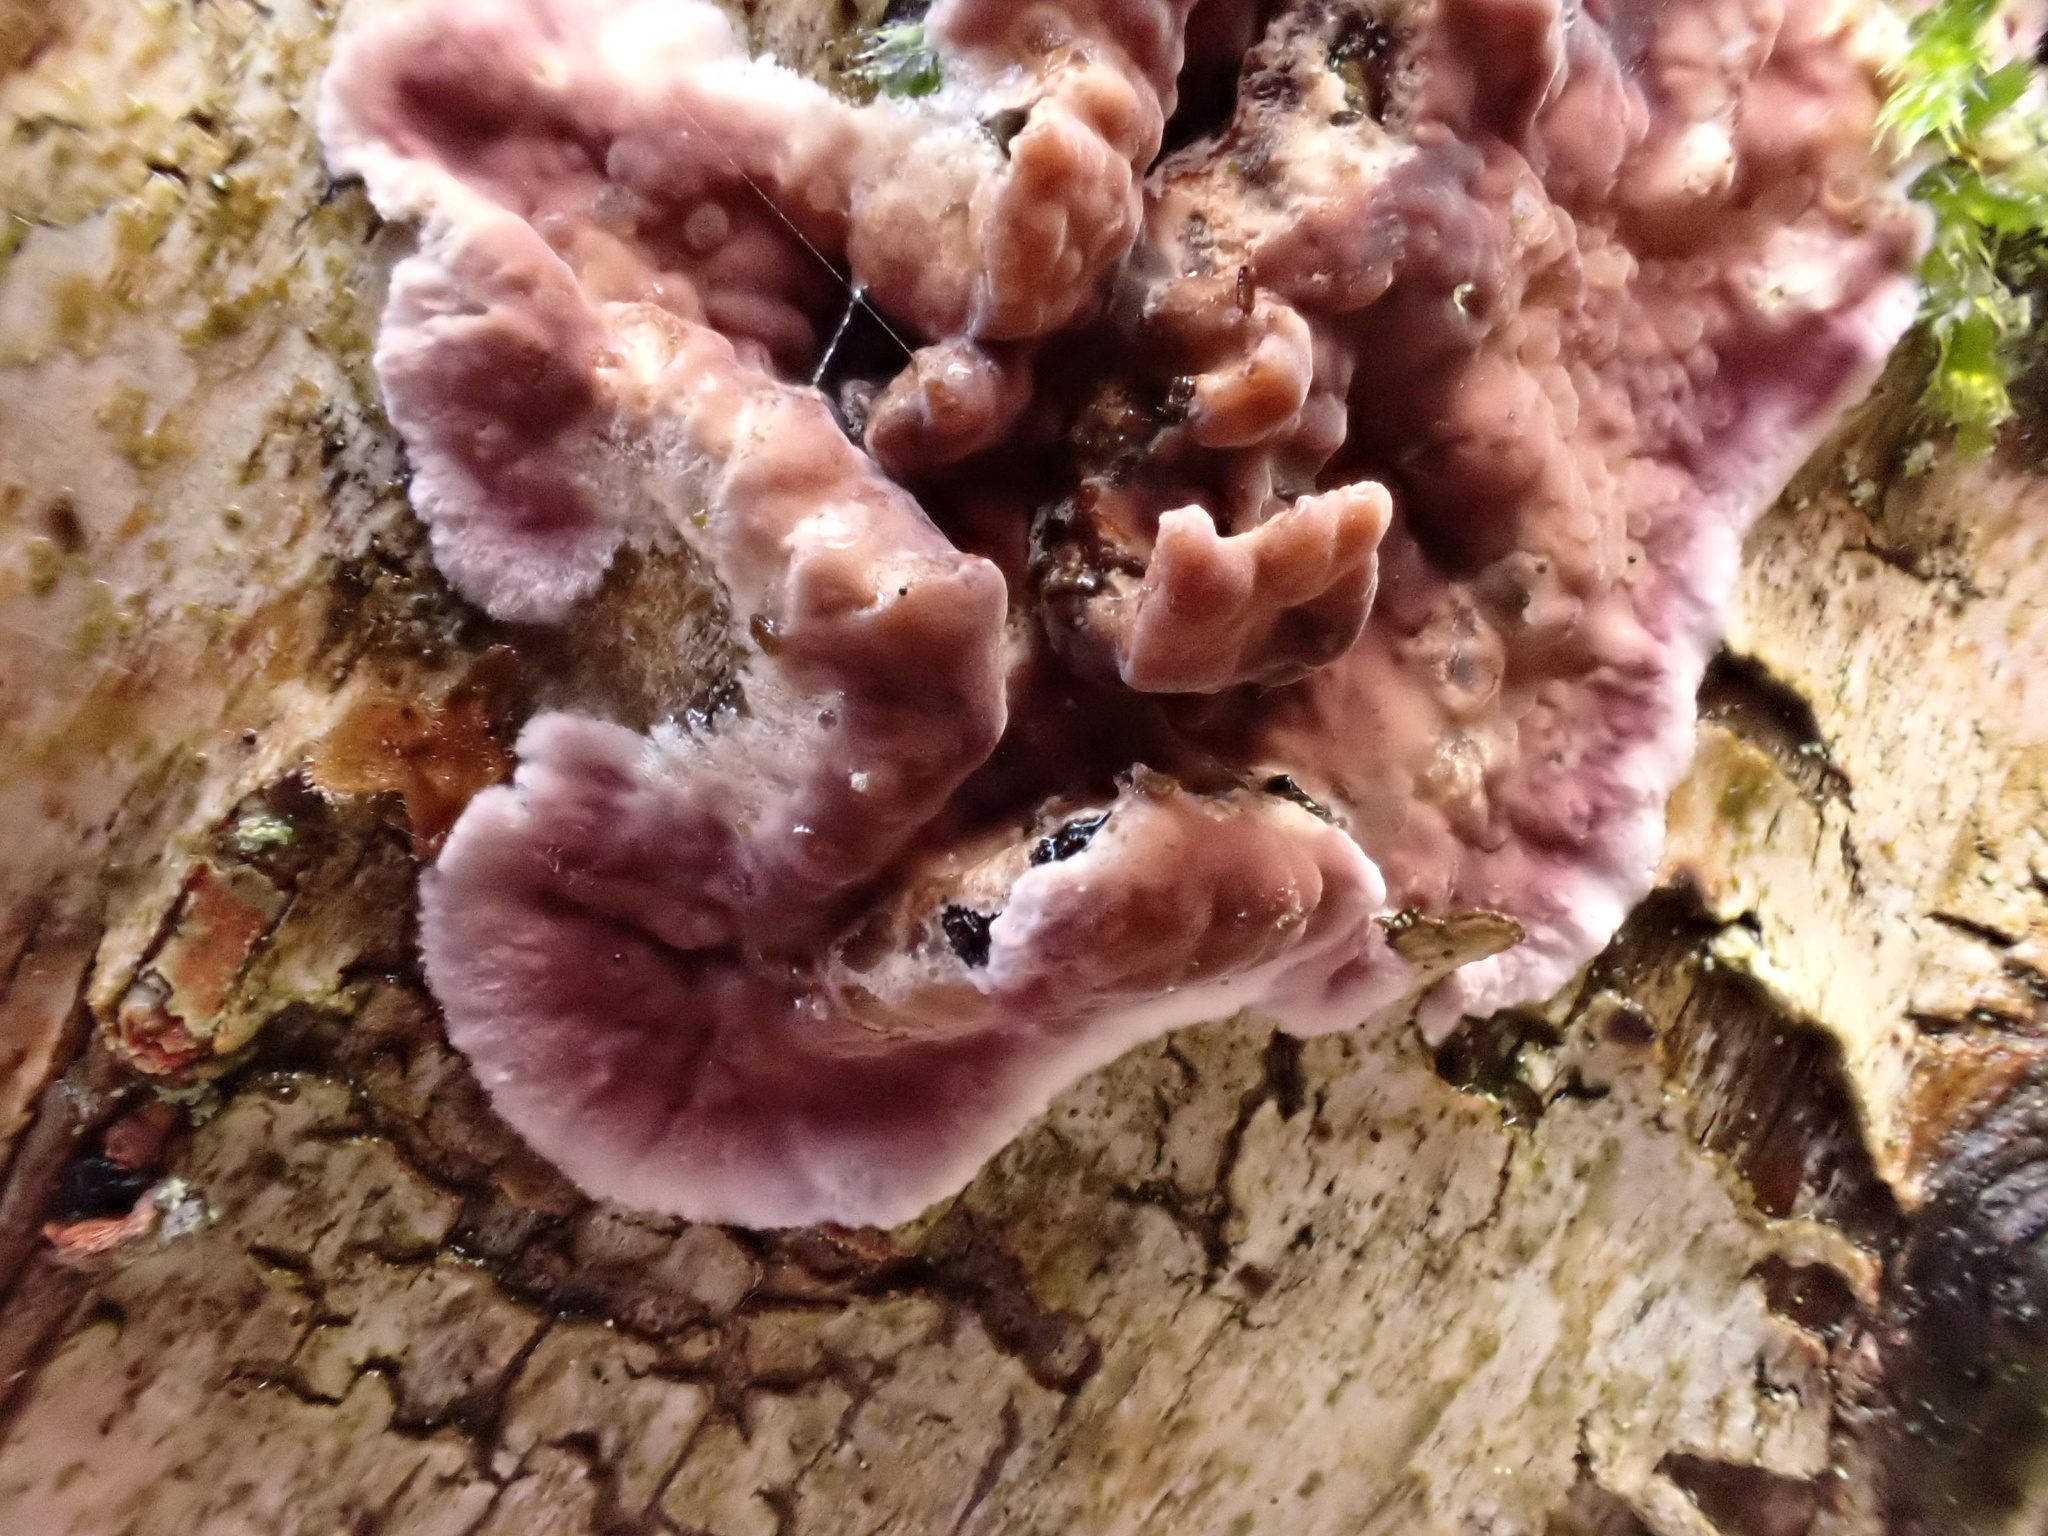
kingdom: Fungi
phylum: Basidiomycota
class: Agaricomycetes
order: Agaricales
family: Cyphellaceae
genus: Chondrostereum
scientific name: Chondrostereum purpureum
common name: Silver leaf disease
